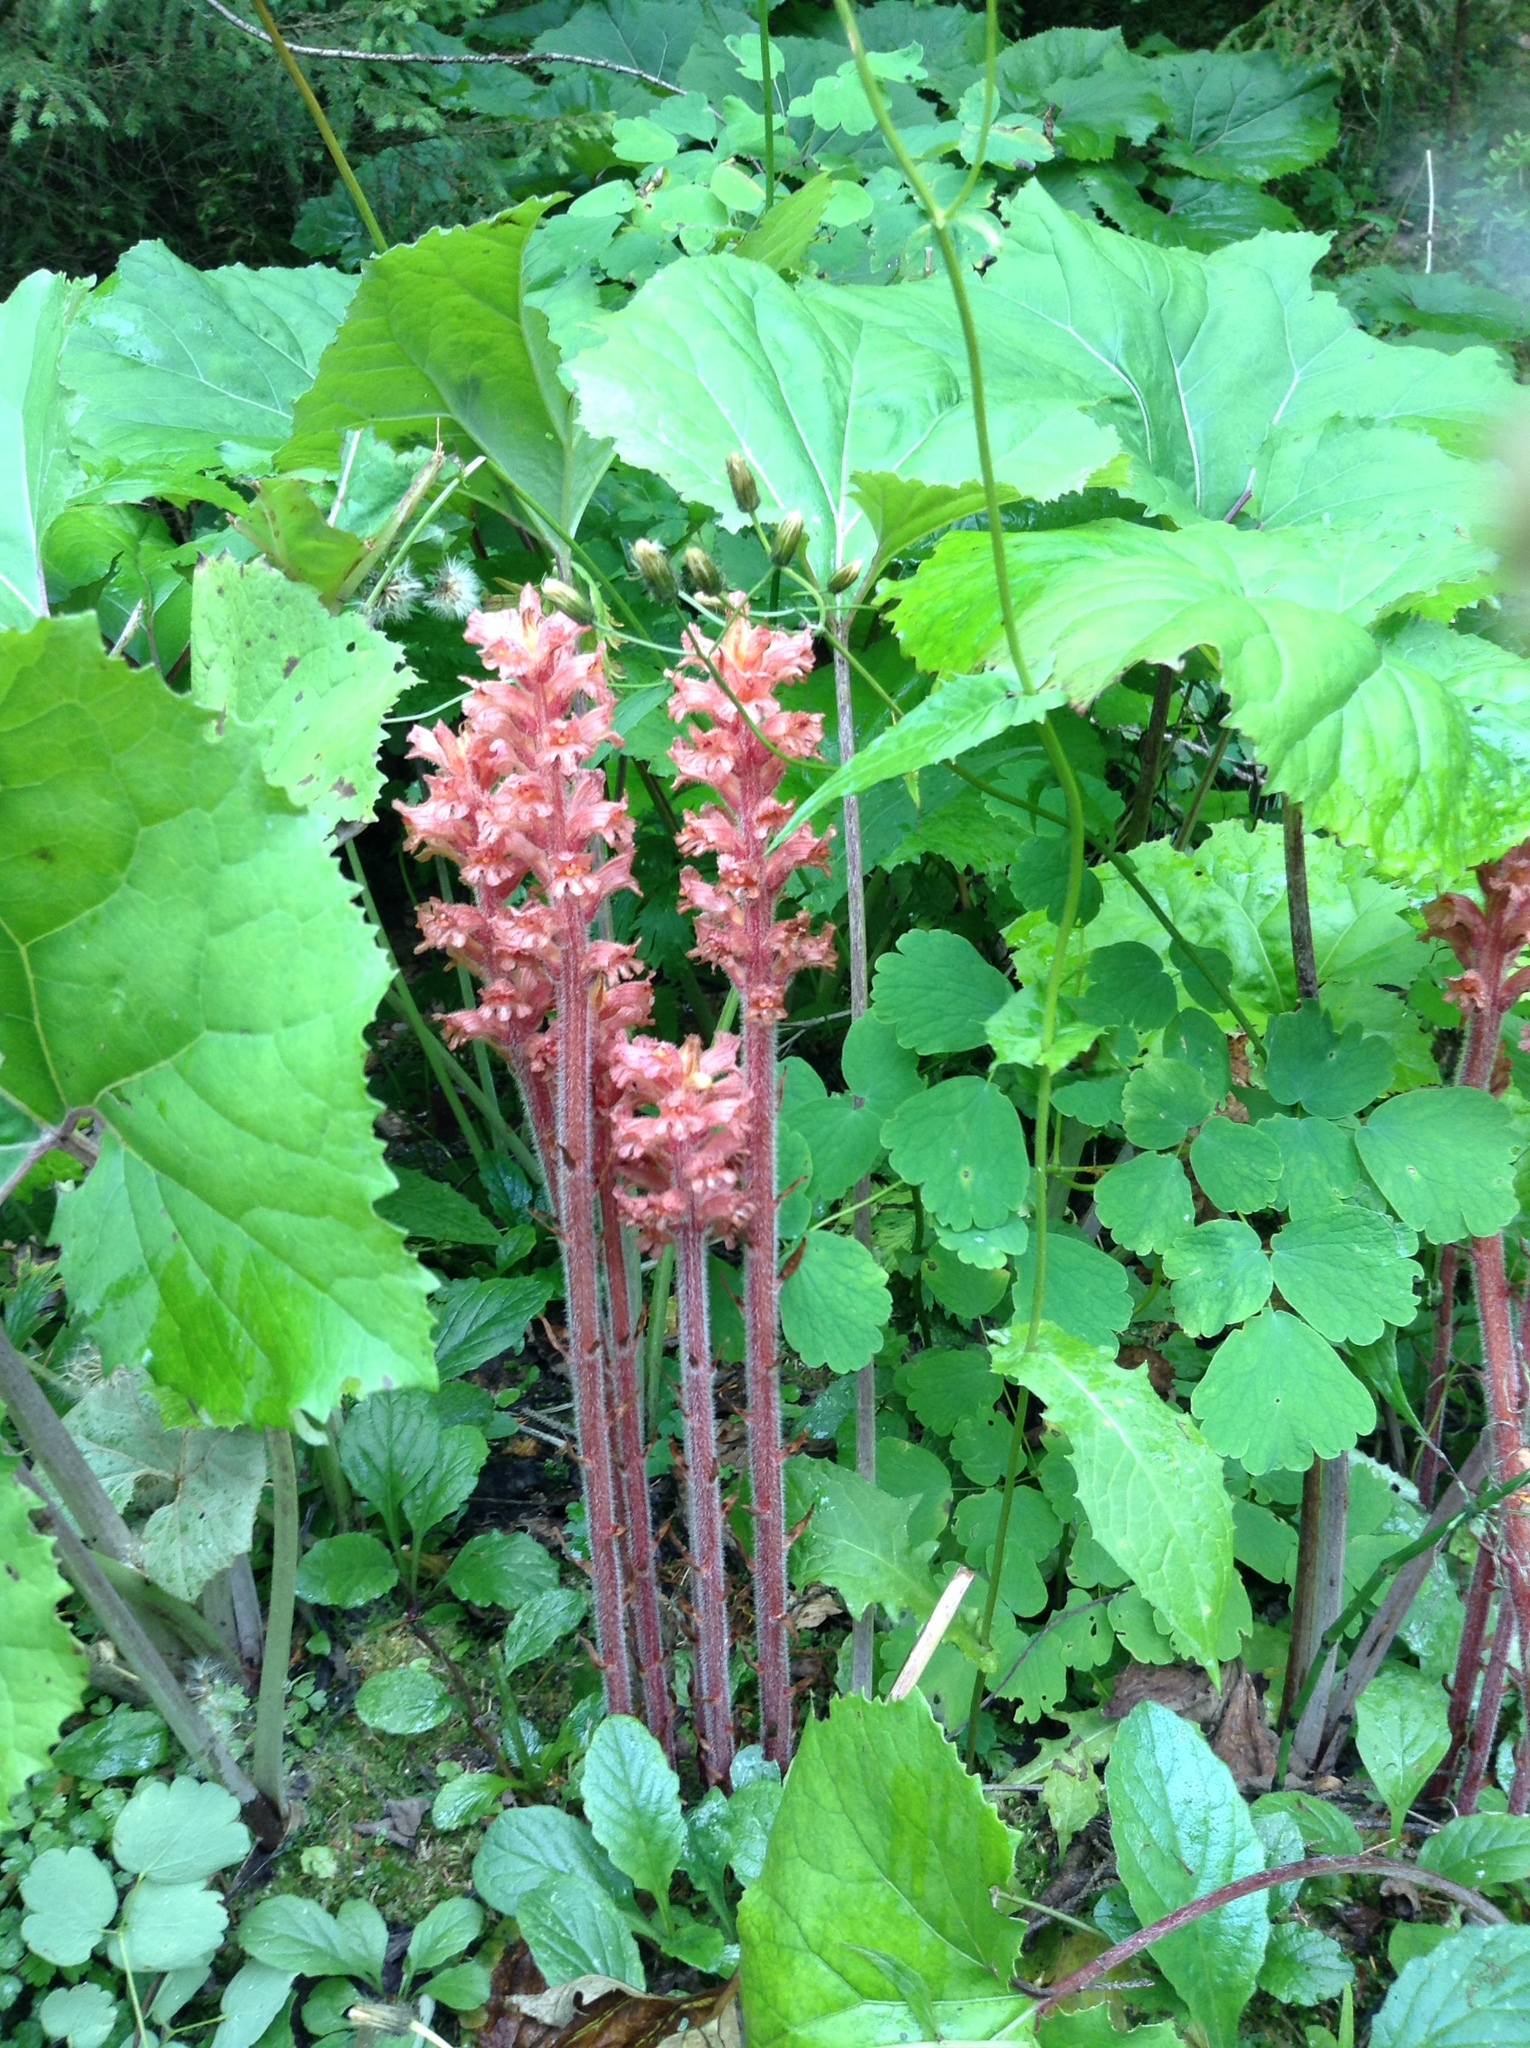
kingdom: Plantae
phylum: Tracheophyta
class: Magnoliopsida
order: Lamiales
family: Orobanchaceae
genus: Orobanche
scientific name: Orobanche flava
